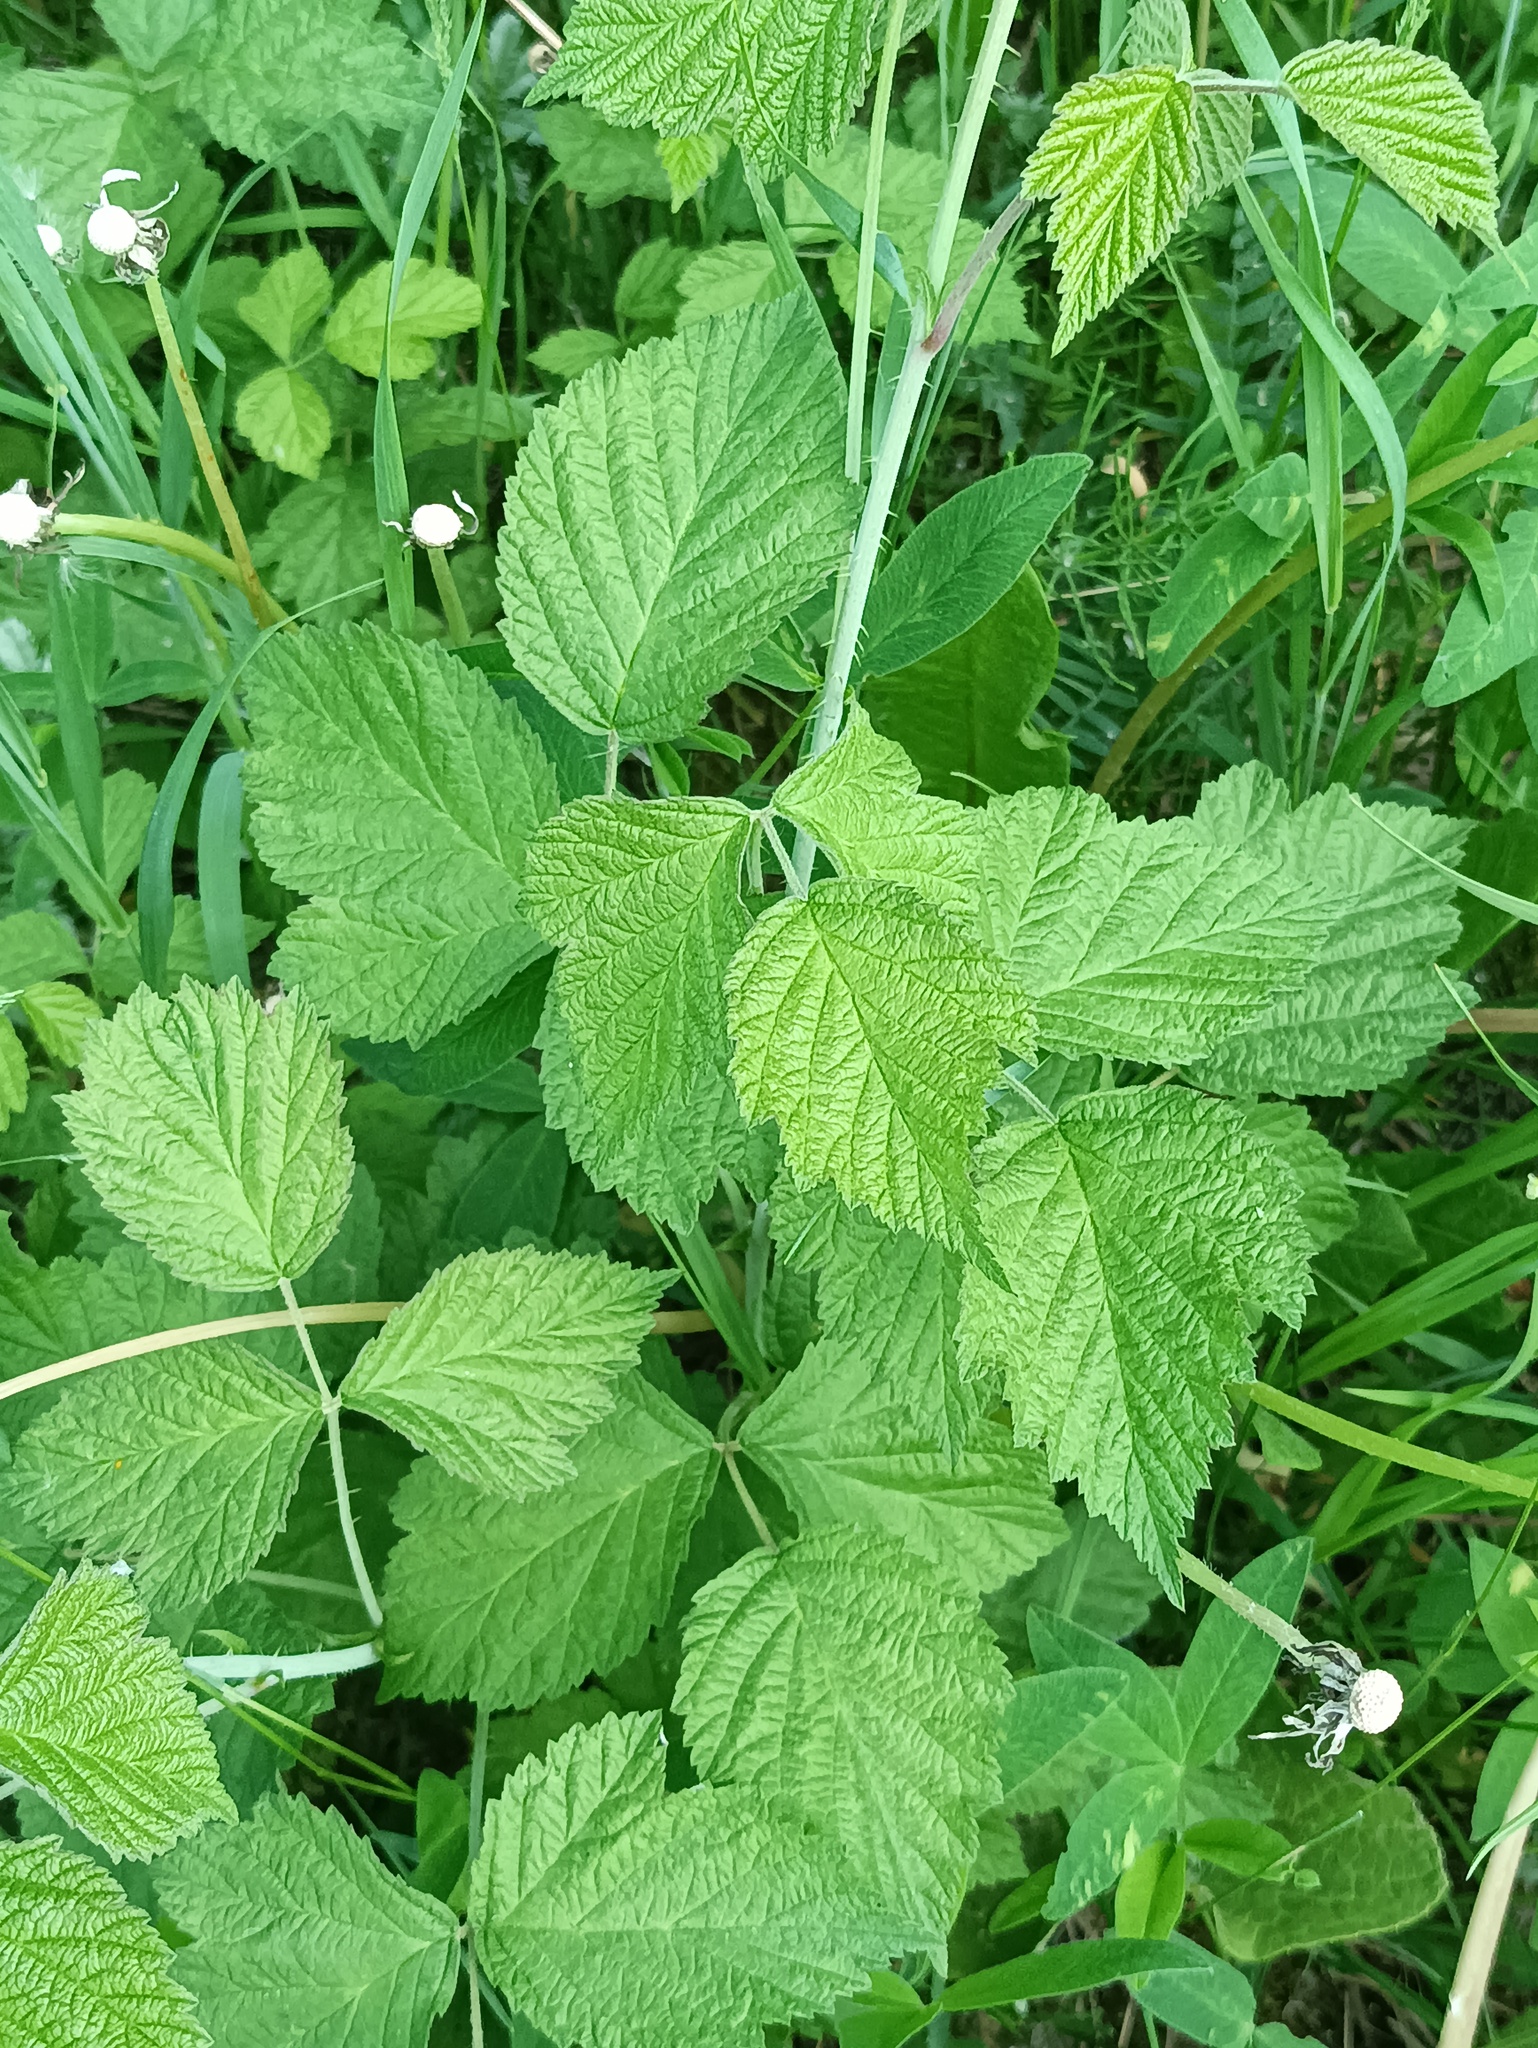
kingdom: Plantae
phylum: Tracheophyta
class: Magnoliopsida
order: Rosales
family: Rosaceae
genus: Rubus
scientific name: Rubus caesius
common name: Dewberry
